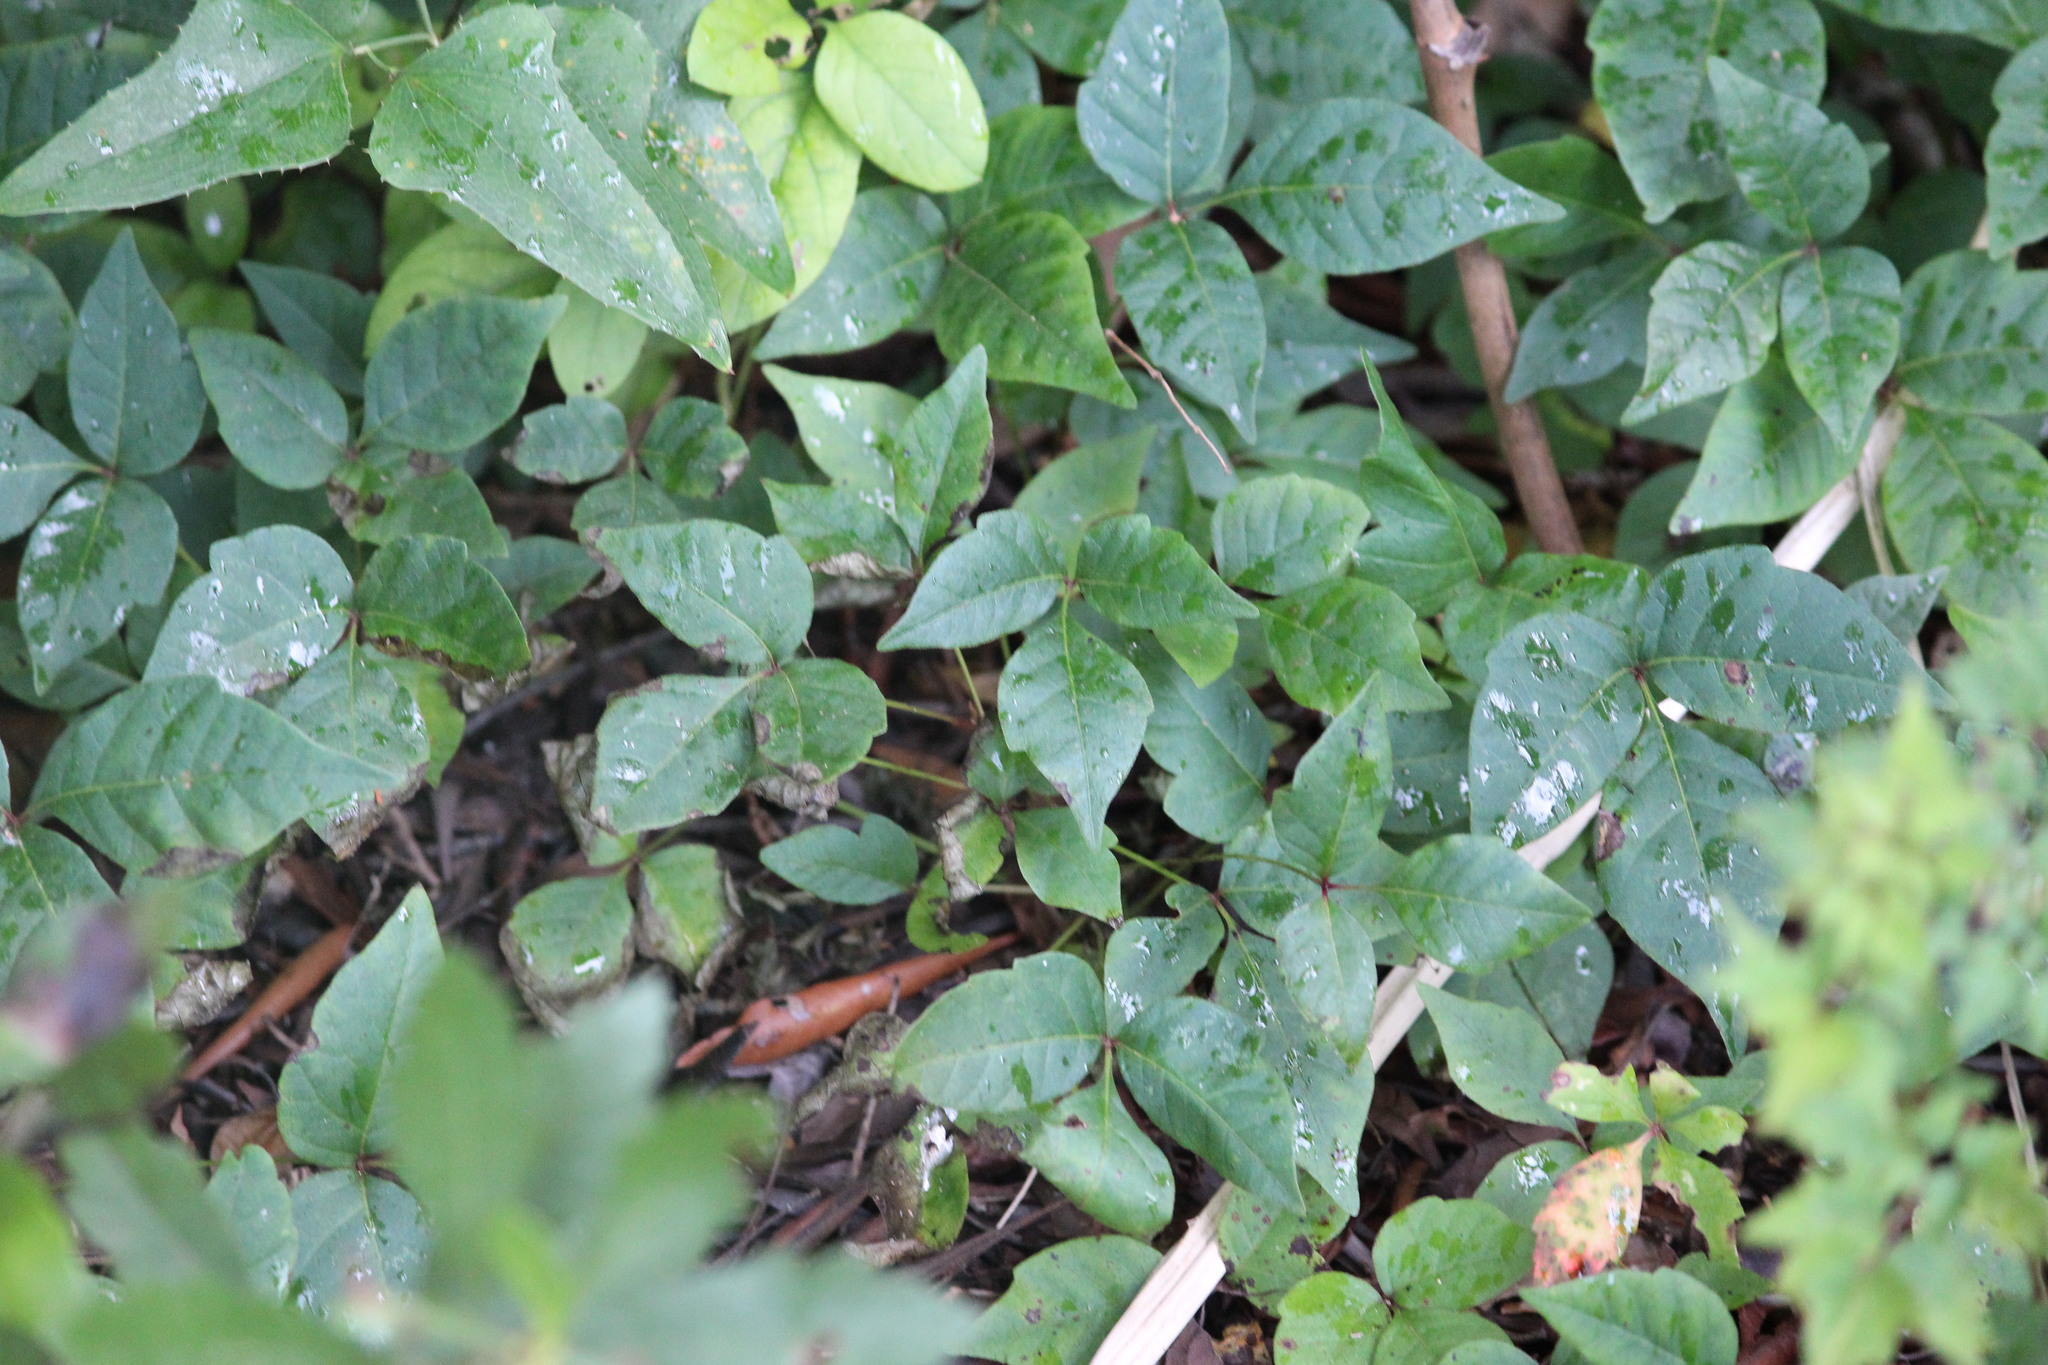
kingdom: Plantae
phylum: Tracheophyta
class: Magnoliopsida
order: Sapindales
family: Anacardiaceae
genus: Toxicodendron
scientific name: Toxicodendron radicans
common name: Poison ivy
